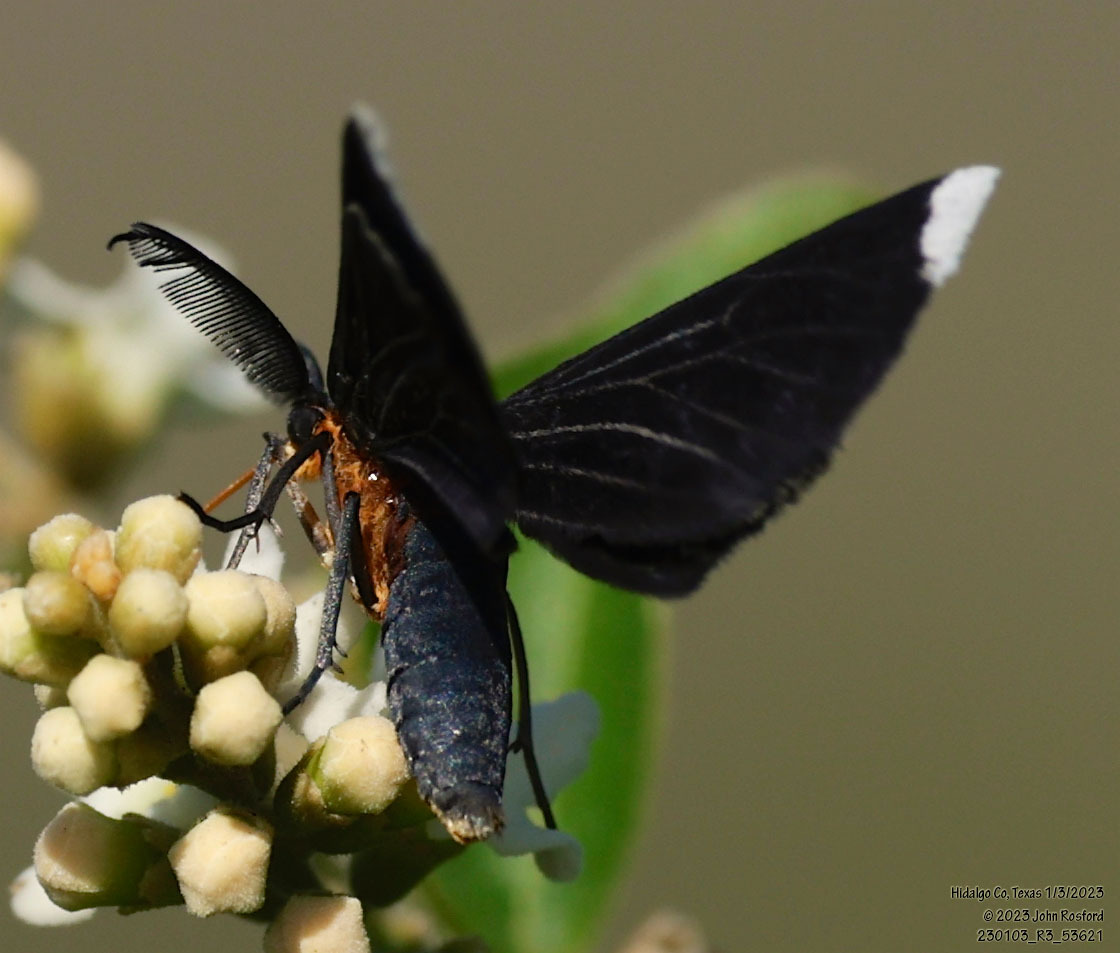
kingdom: Animalia
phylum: Arthropoda
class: Insecta
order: Lepidoptera
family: Geometridae
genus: Melanchroia
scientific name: Melanchroia chephise
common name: White-tipped black
